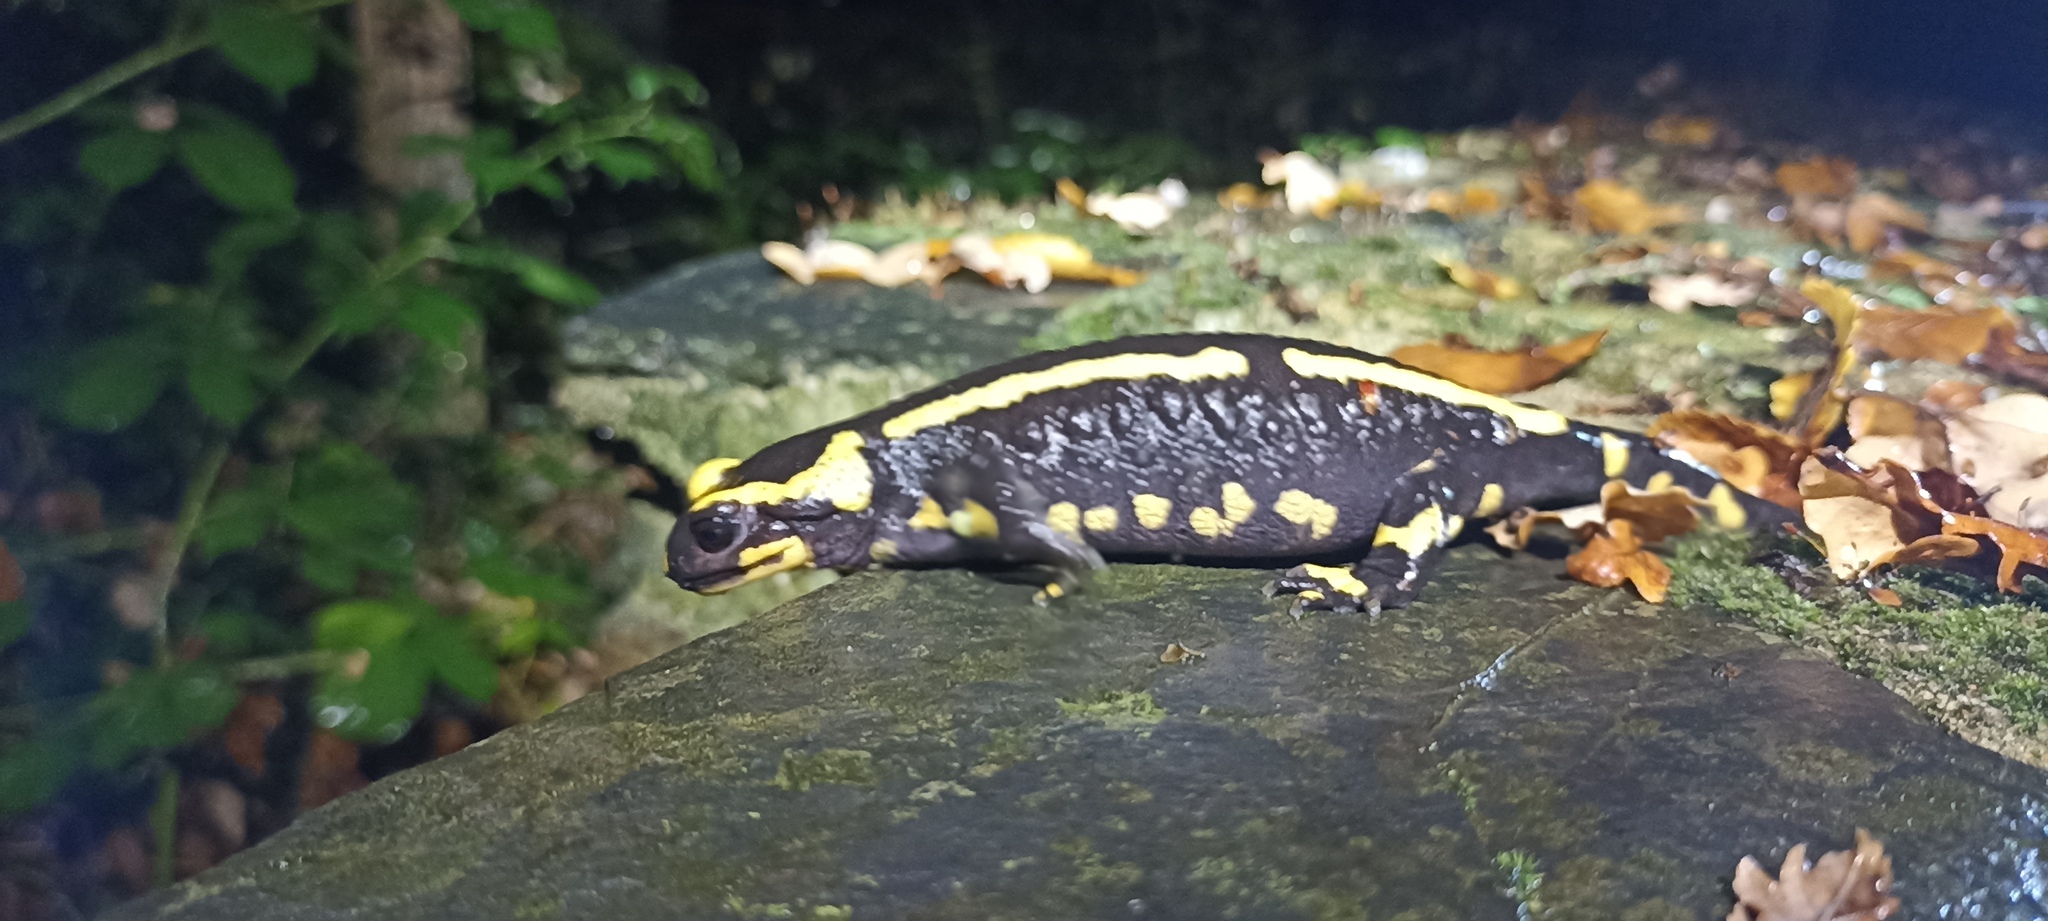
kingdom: Animalia
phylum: Chordata
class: Amphibia
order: Caudata
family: Salamandridae
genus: Salamandra
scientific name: Salamandra salamandra
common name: Fire salamander
